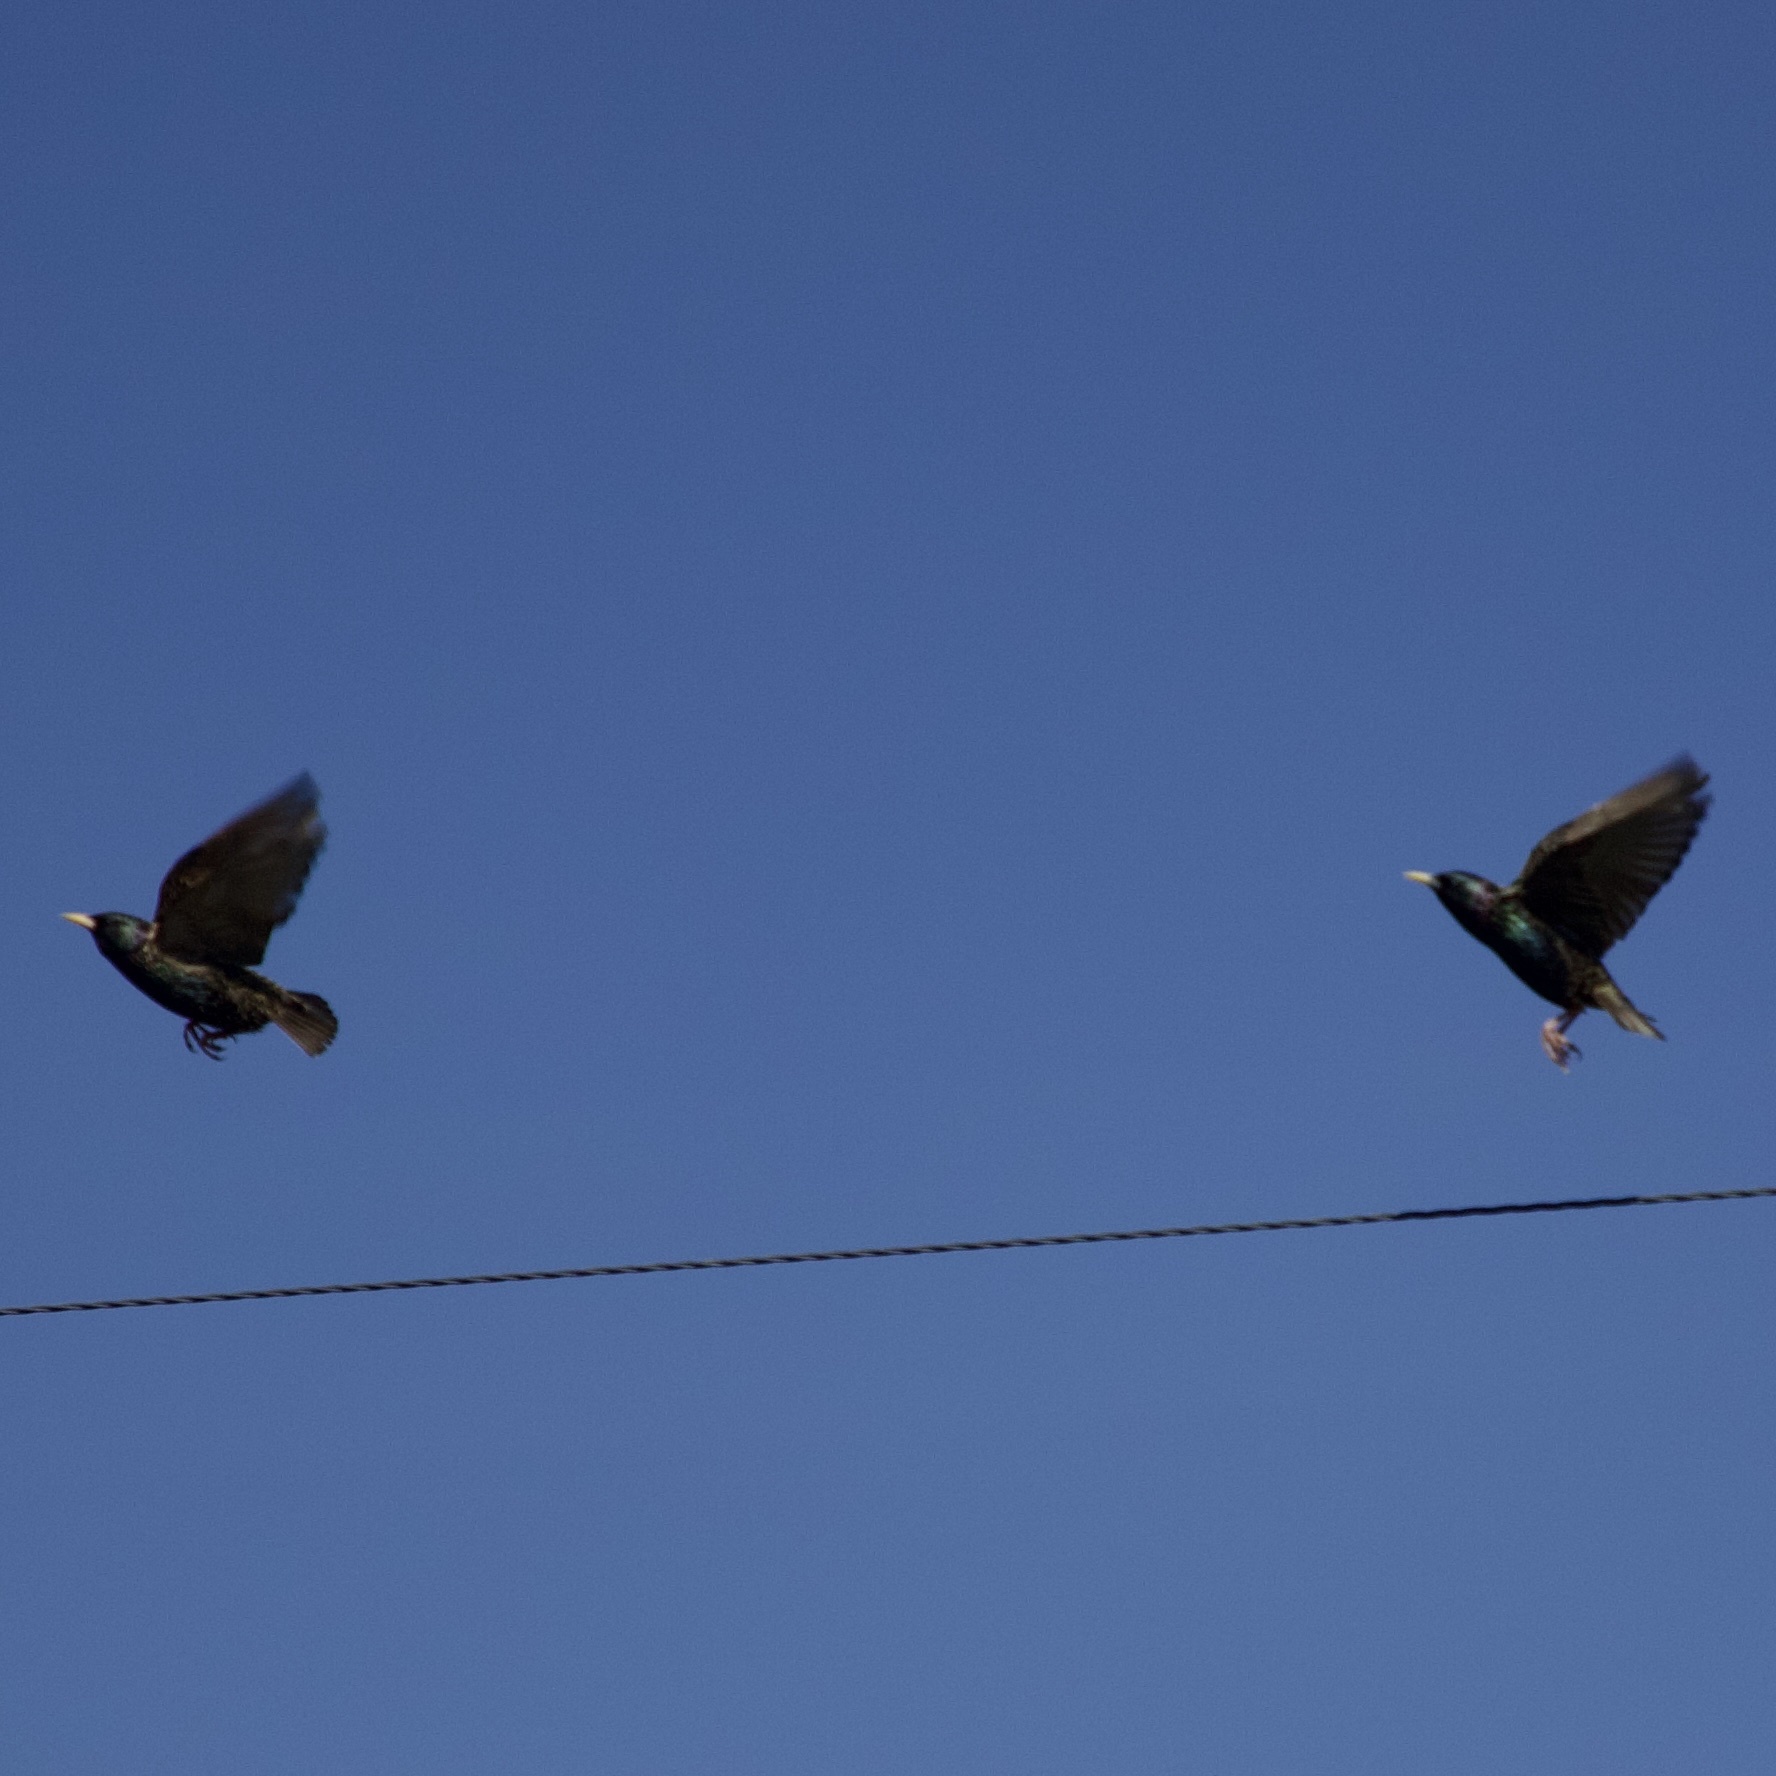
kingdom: Animalia
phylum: Chordata
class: Aves
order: Passeriformes
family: Sturnidae
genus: Sturnus
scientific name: Sturnus vulgaris
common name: Common starling
